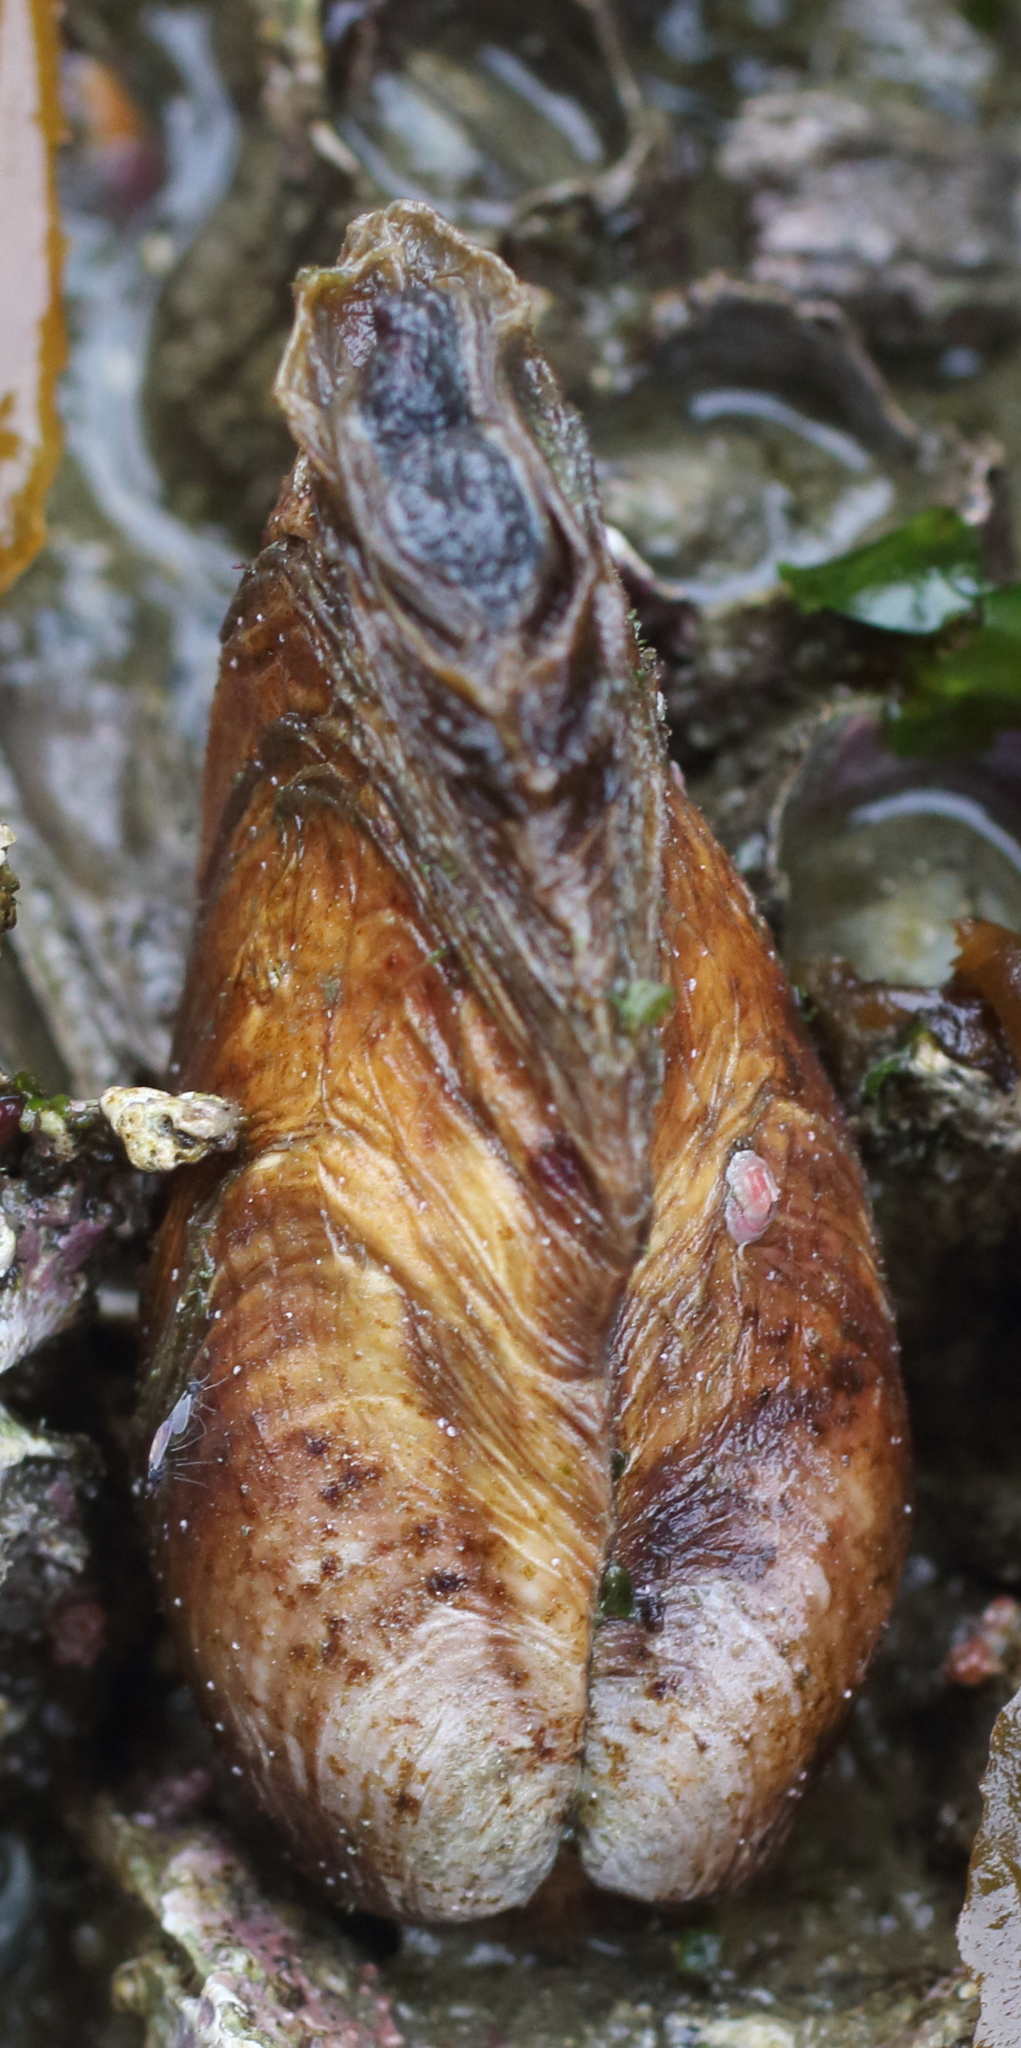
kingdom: Animalia
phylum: Mollusca
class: Bivalvia
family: Lyonsiidae
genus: Entodesma
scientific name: Entodesma navicula
